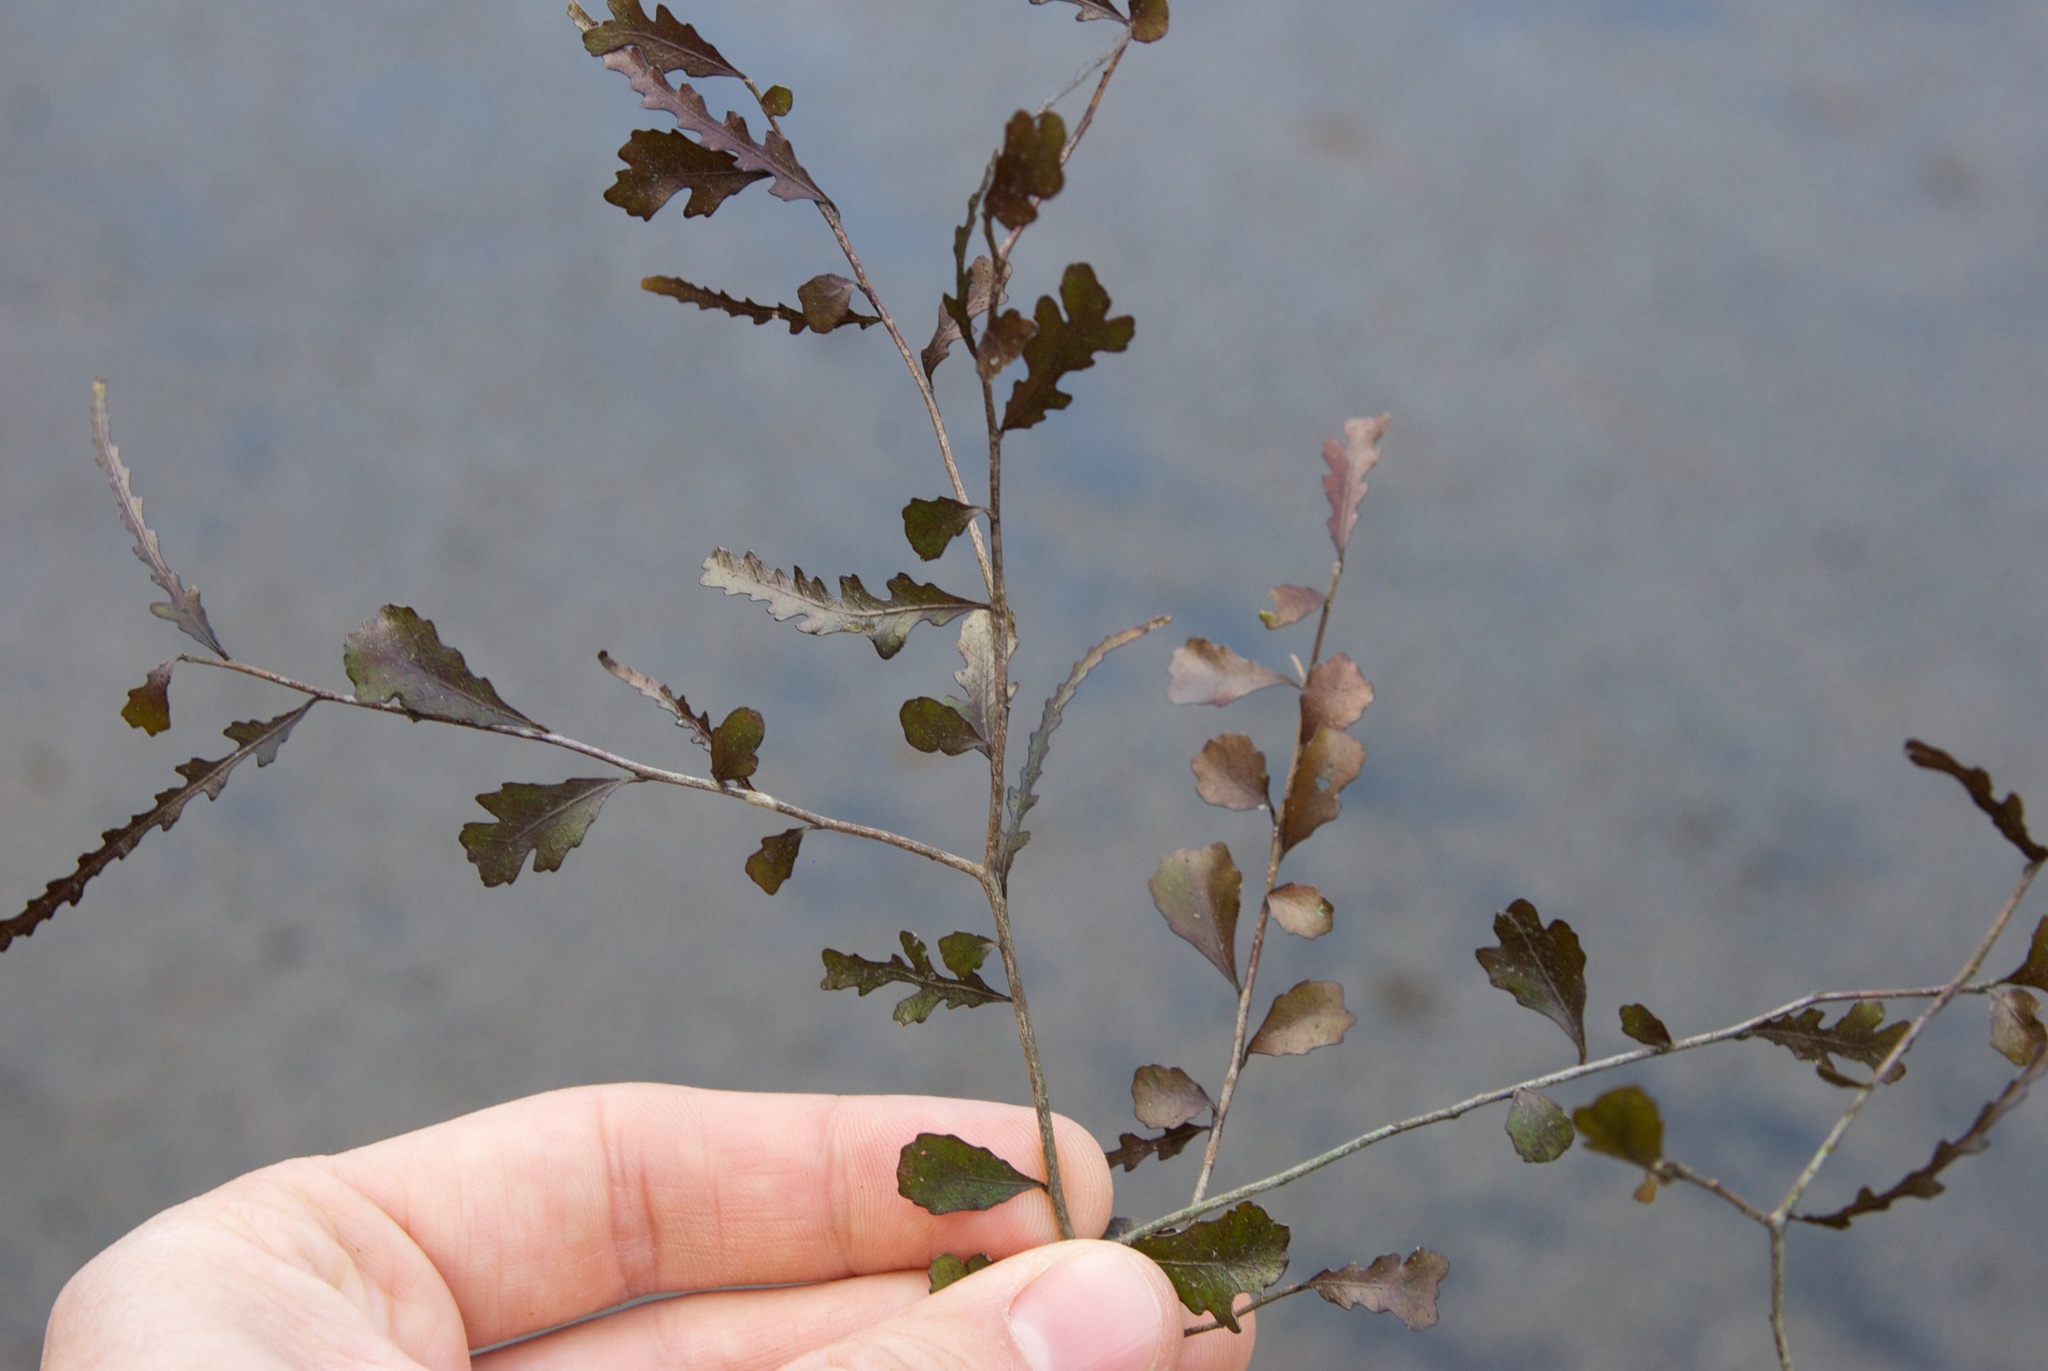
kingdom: Plantae
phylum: Tracheophyta
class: Magnoliopsida
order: Oxalidales
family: Elaeocarpaceae
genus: Elaeocarpus
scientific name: Elaeocarpus hookerianus
